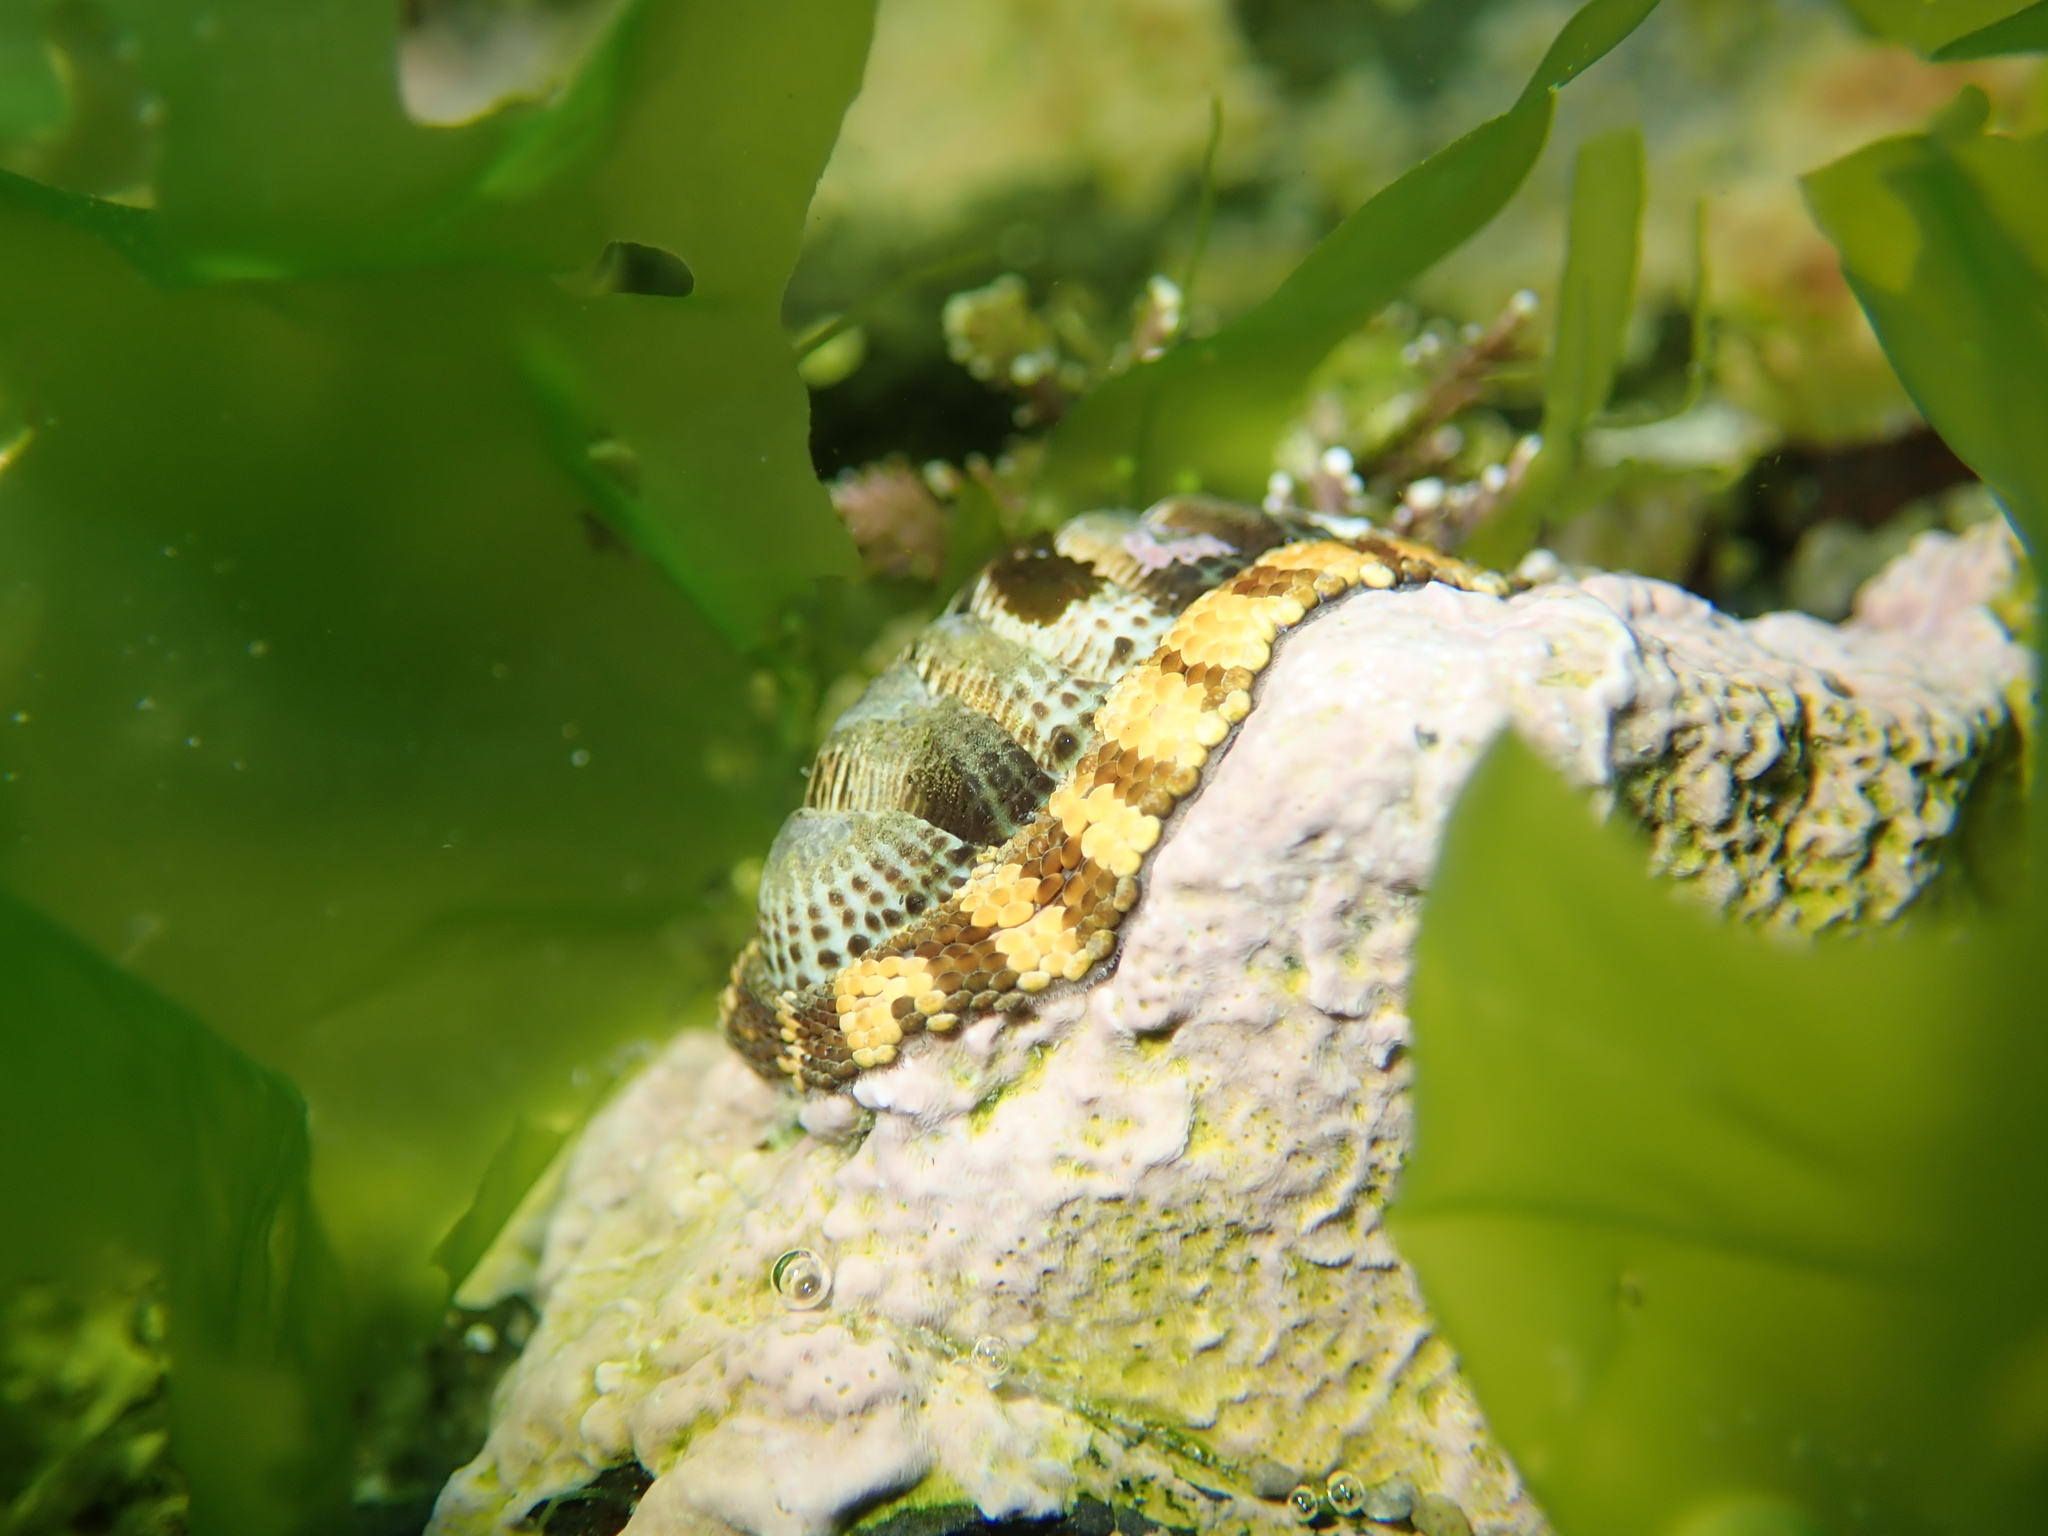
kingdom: Animalia
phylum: Mollusca
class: Polyplacophora
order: Chitonida
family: Chitonidae
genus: Sypharochiton
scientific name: Sypharochiton pelliserpentis
